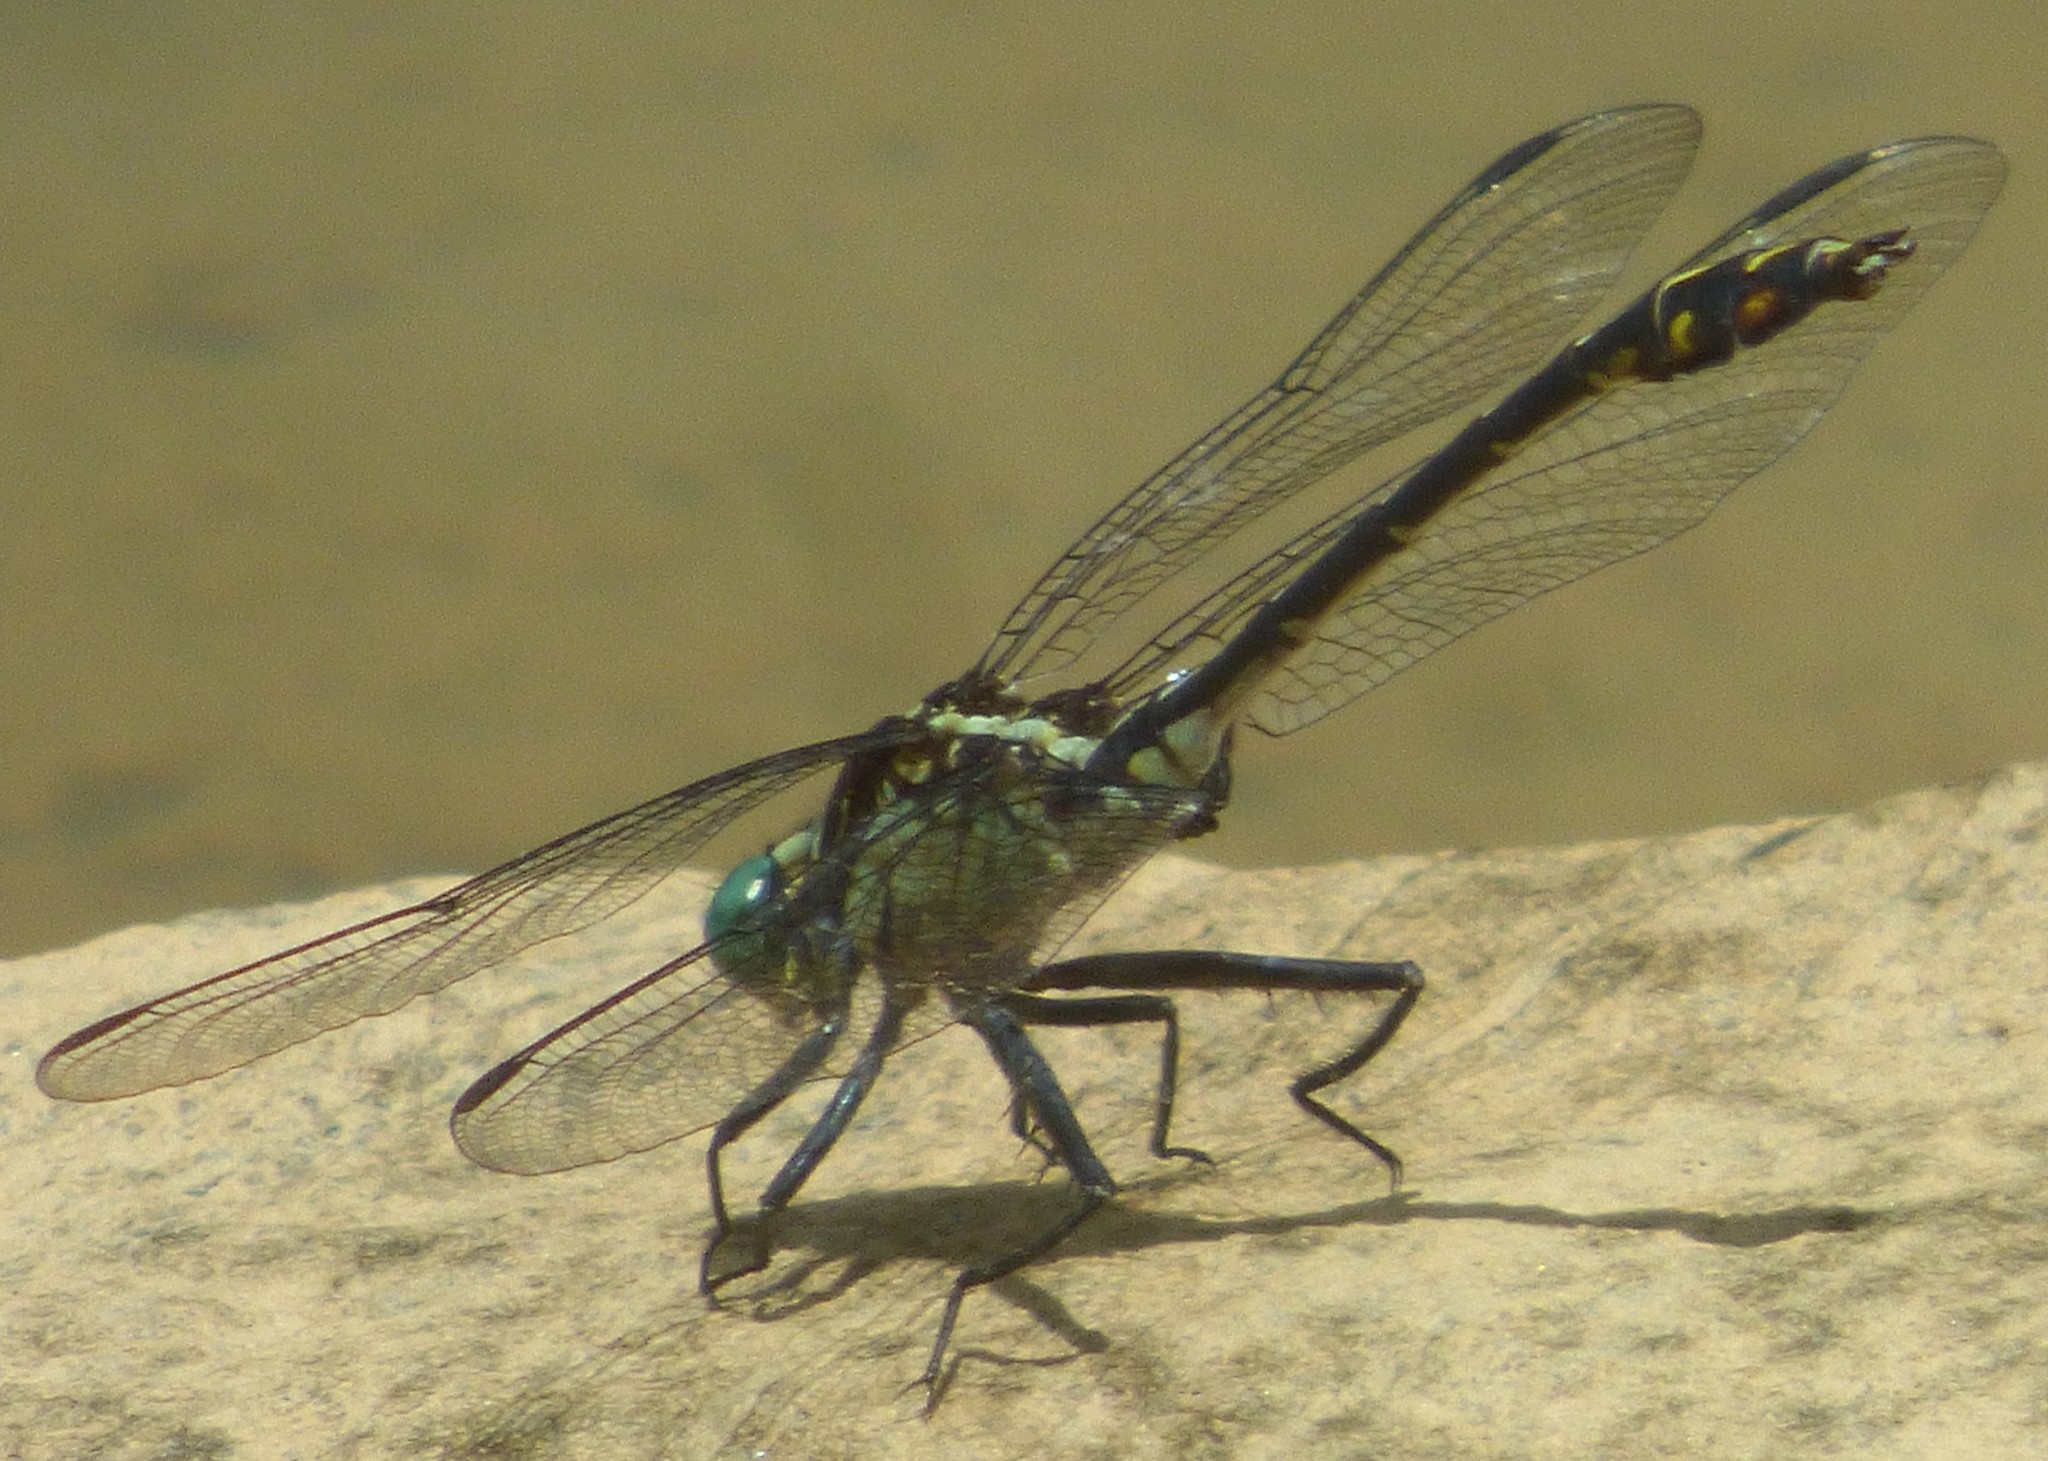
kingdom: Animalia
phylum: Arthropoda
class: Insecta
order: Odonata
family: Gomphidae
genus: Dromogomphus
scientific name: Dromogomphus spinosus
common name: Black-shouldered spinyleg
